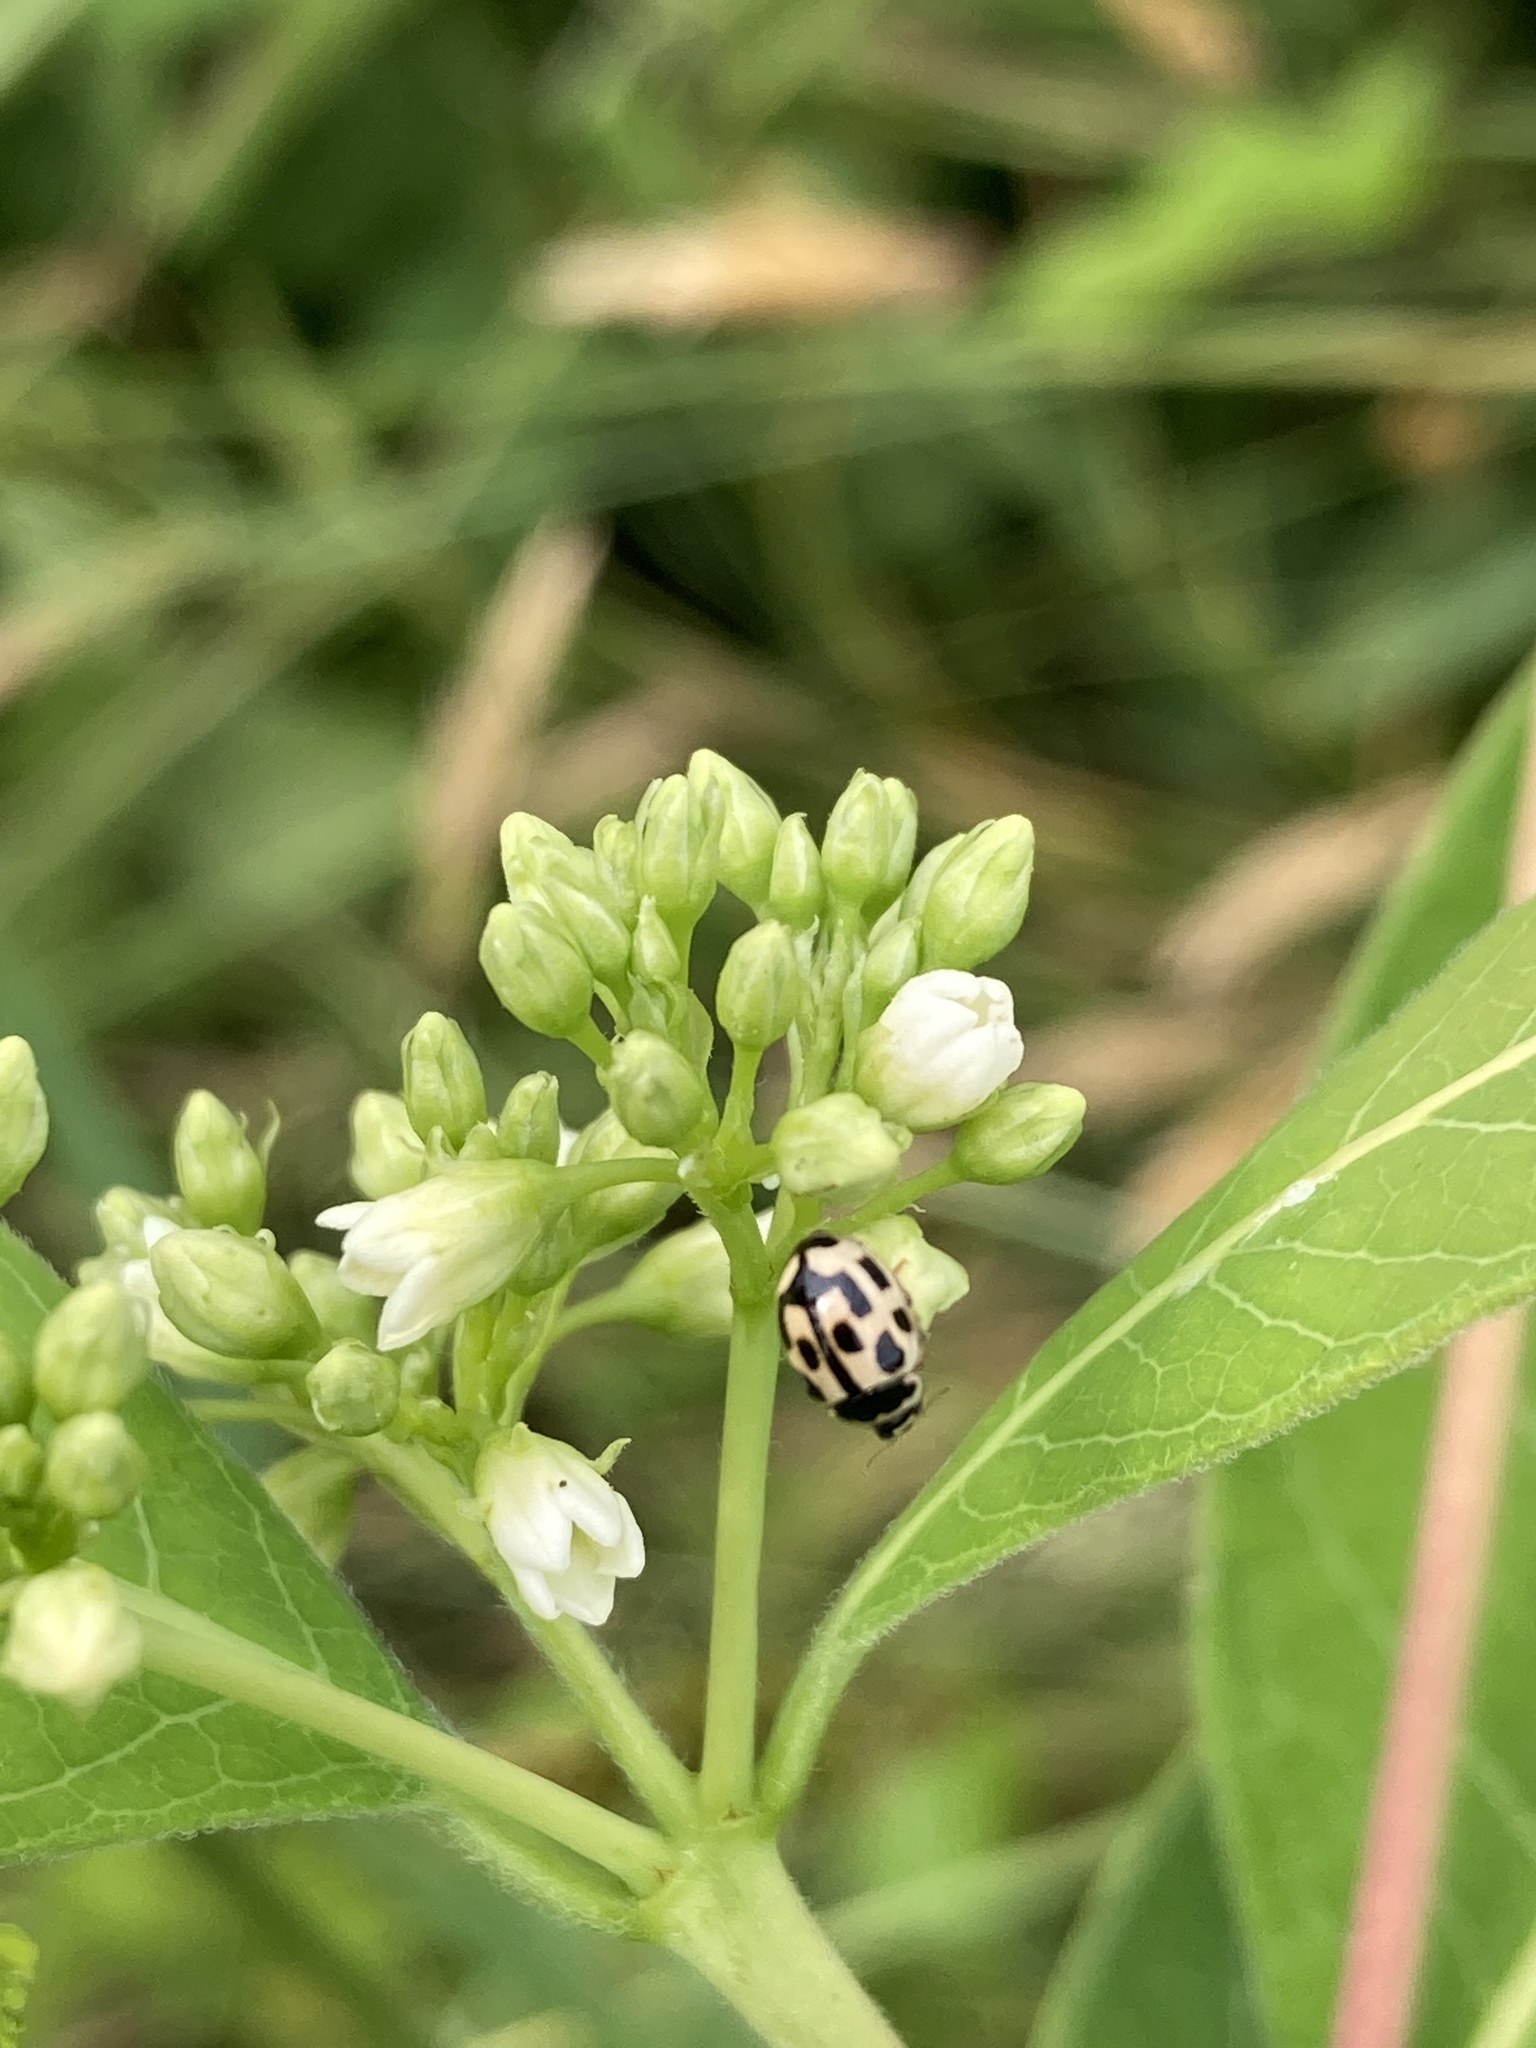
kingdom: Animalia
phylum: Arthropoda
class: Insecta
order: Coleoptera
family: Coccinellidae
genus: Propylaea
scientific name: Propylaea quatuordecimpunctata
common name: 14-spotted ladybird beetle
